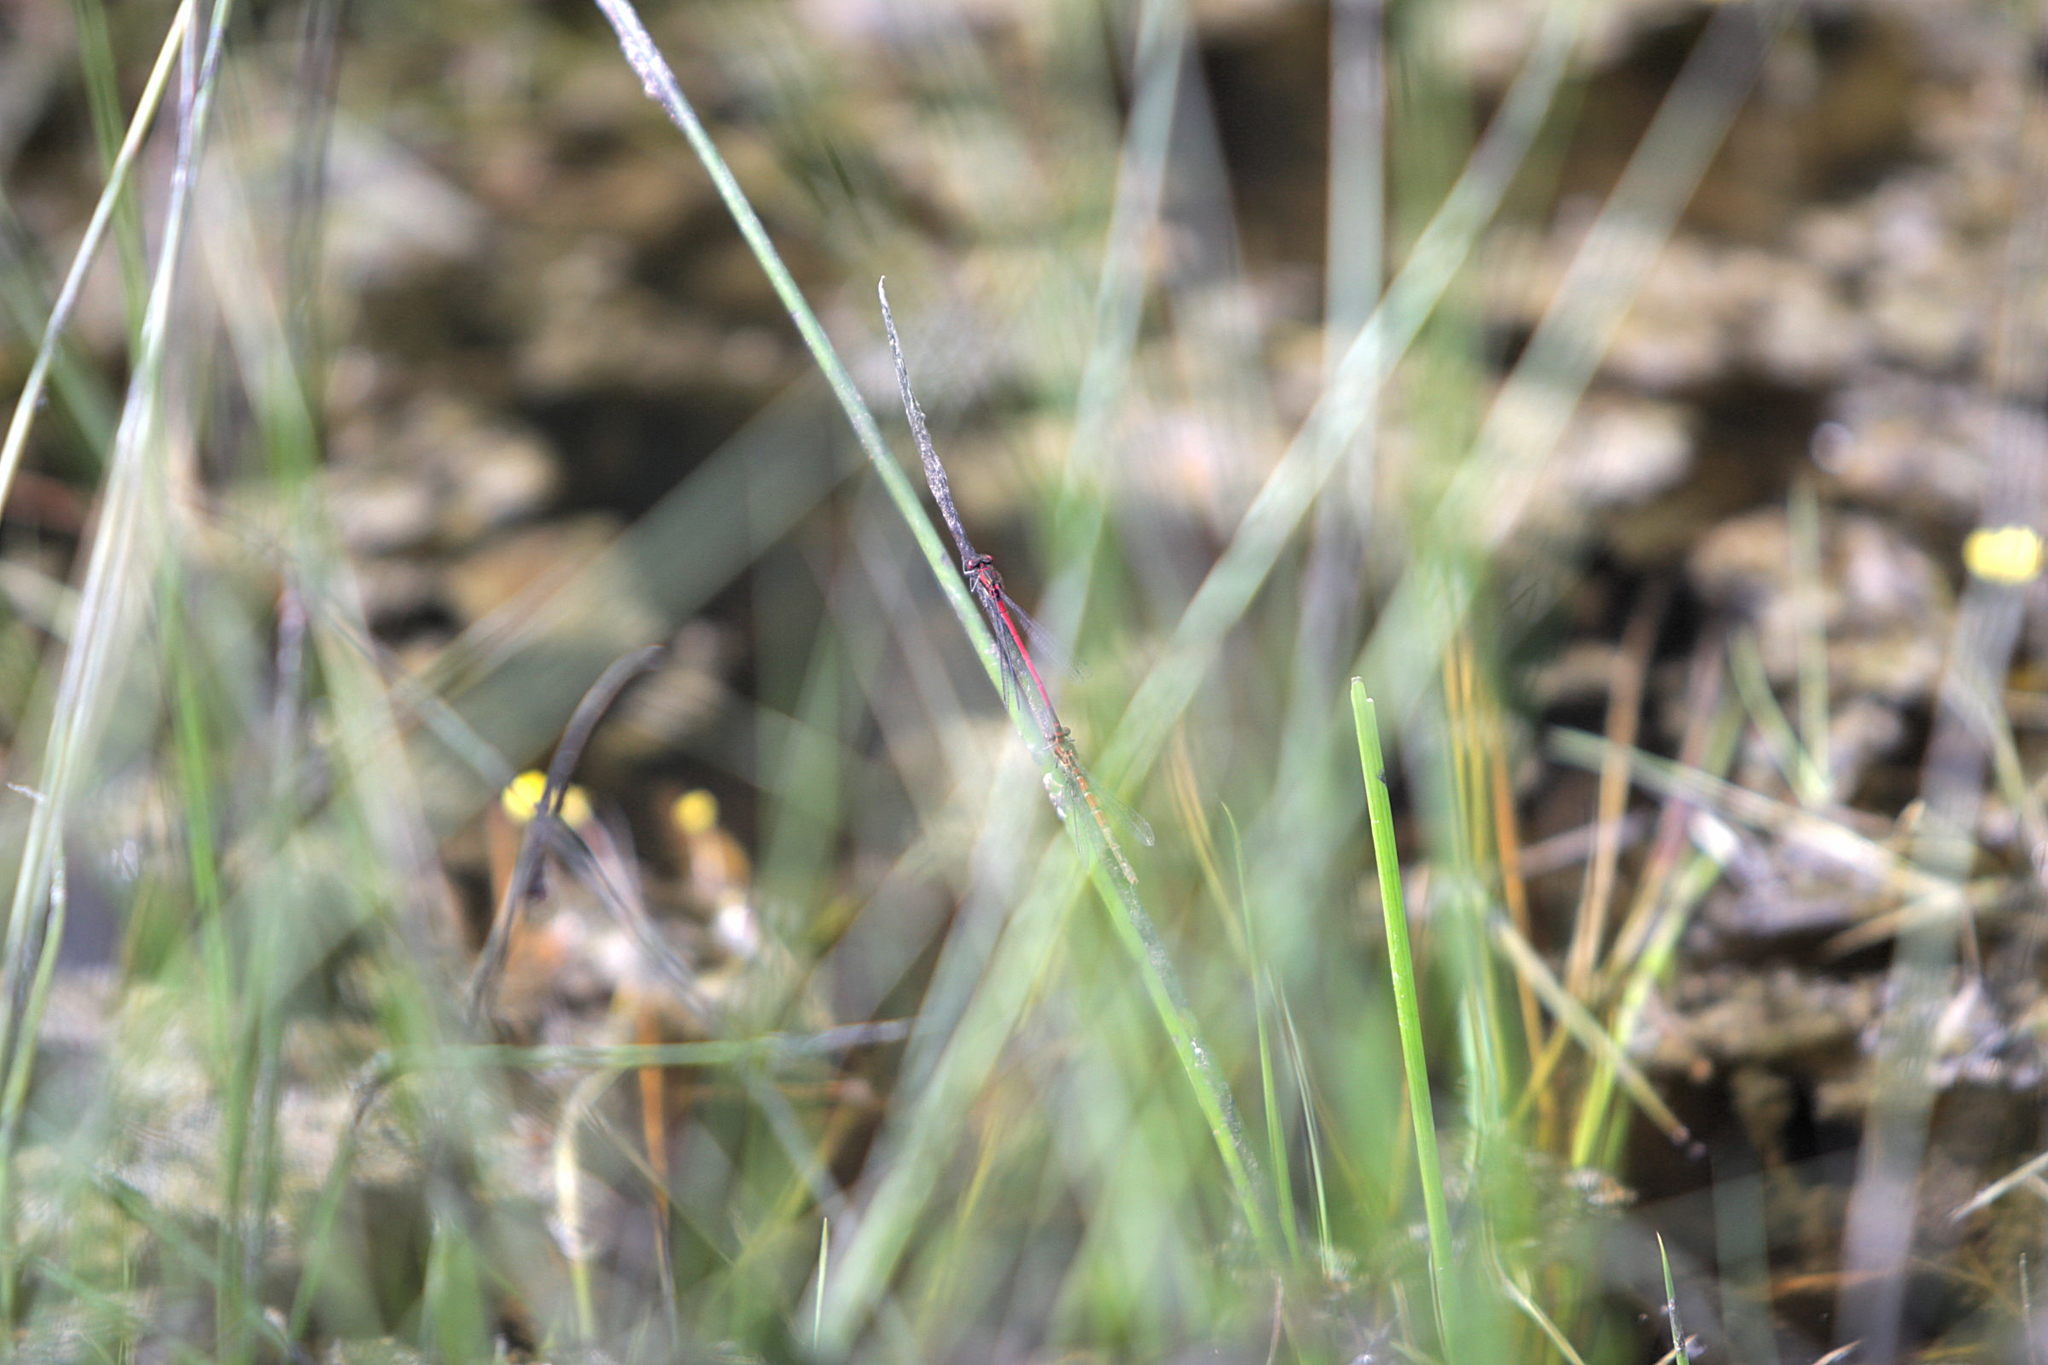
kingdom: Animalia
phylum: Arthropoda
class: Insecta
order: Odonata
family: Coenagrionidae
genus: Pyrrhosoma
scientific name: Pyrrhosoma nymphula
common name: Large red damsel
